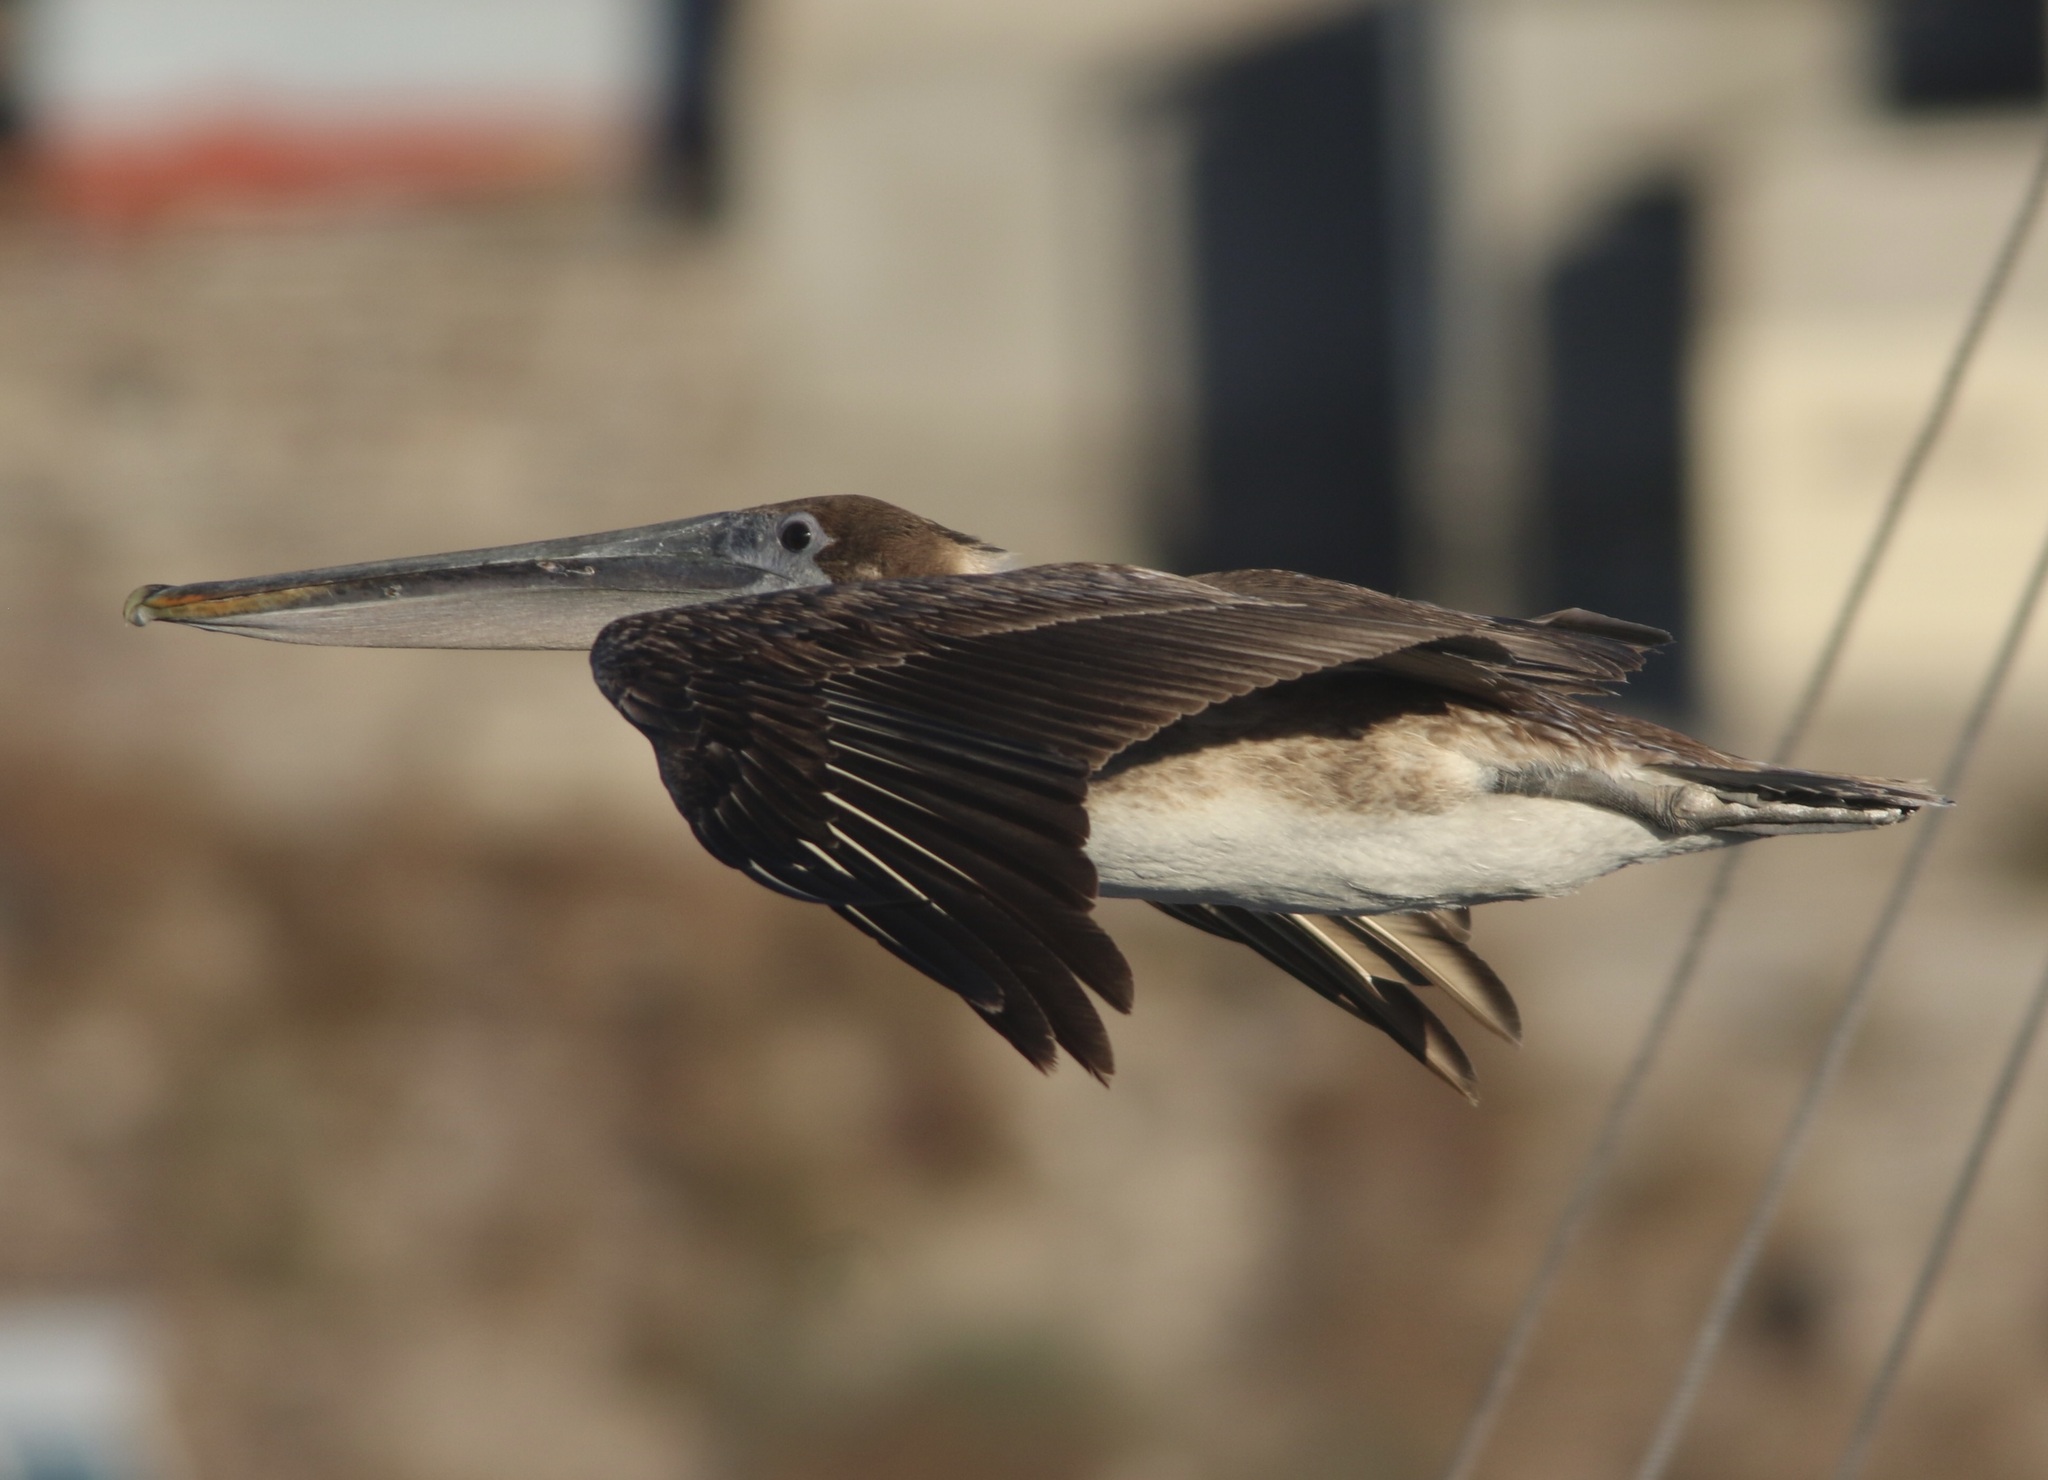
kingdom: Animalia
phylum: Chordata
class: Aves
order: Pelecaniformes
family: Pelecanidae
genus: Pelecanus
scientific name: Pelecanus occidentalis
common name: Brown pelican
